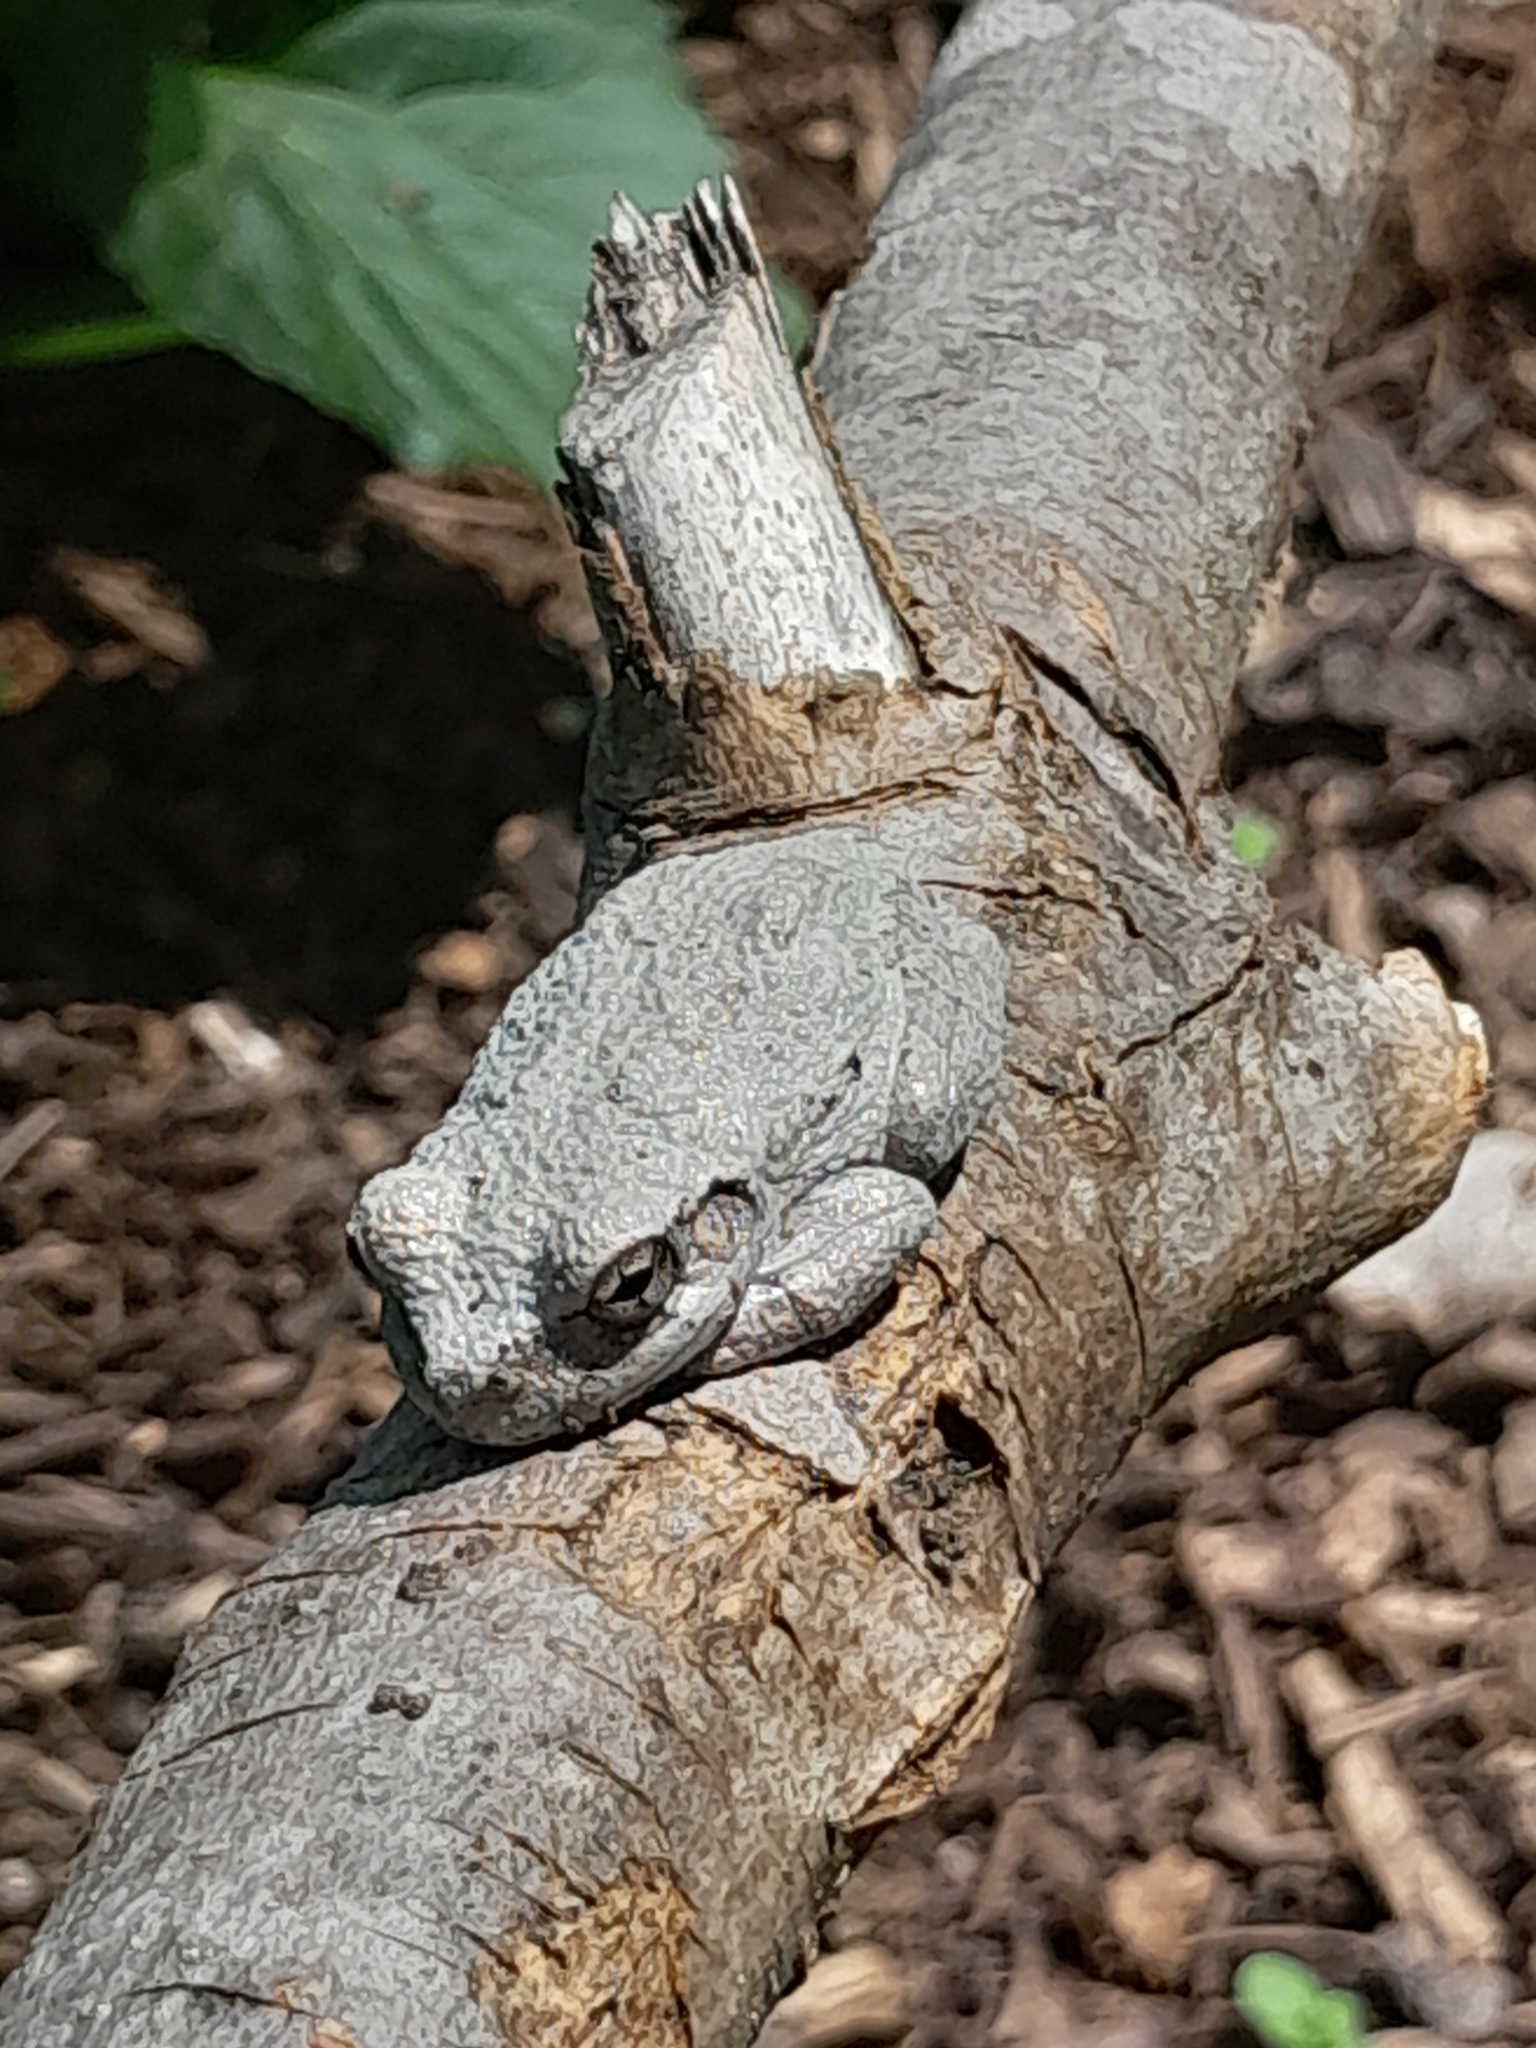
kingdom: Animalia
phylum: Chordata
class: Amphibia
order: Anura
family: Hylidae
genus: Dryophytes
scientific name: Dryophytes chrysoscelis
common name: Cope's gray treefrog
